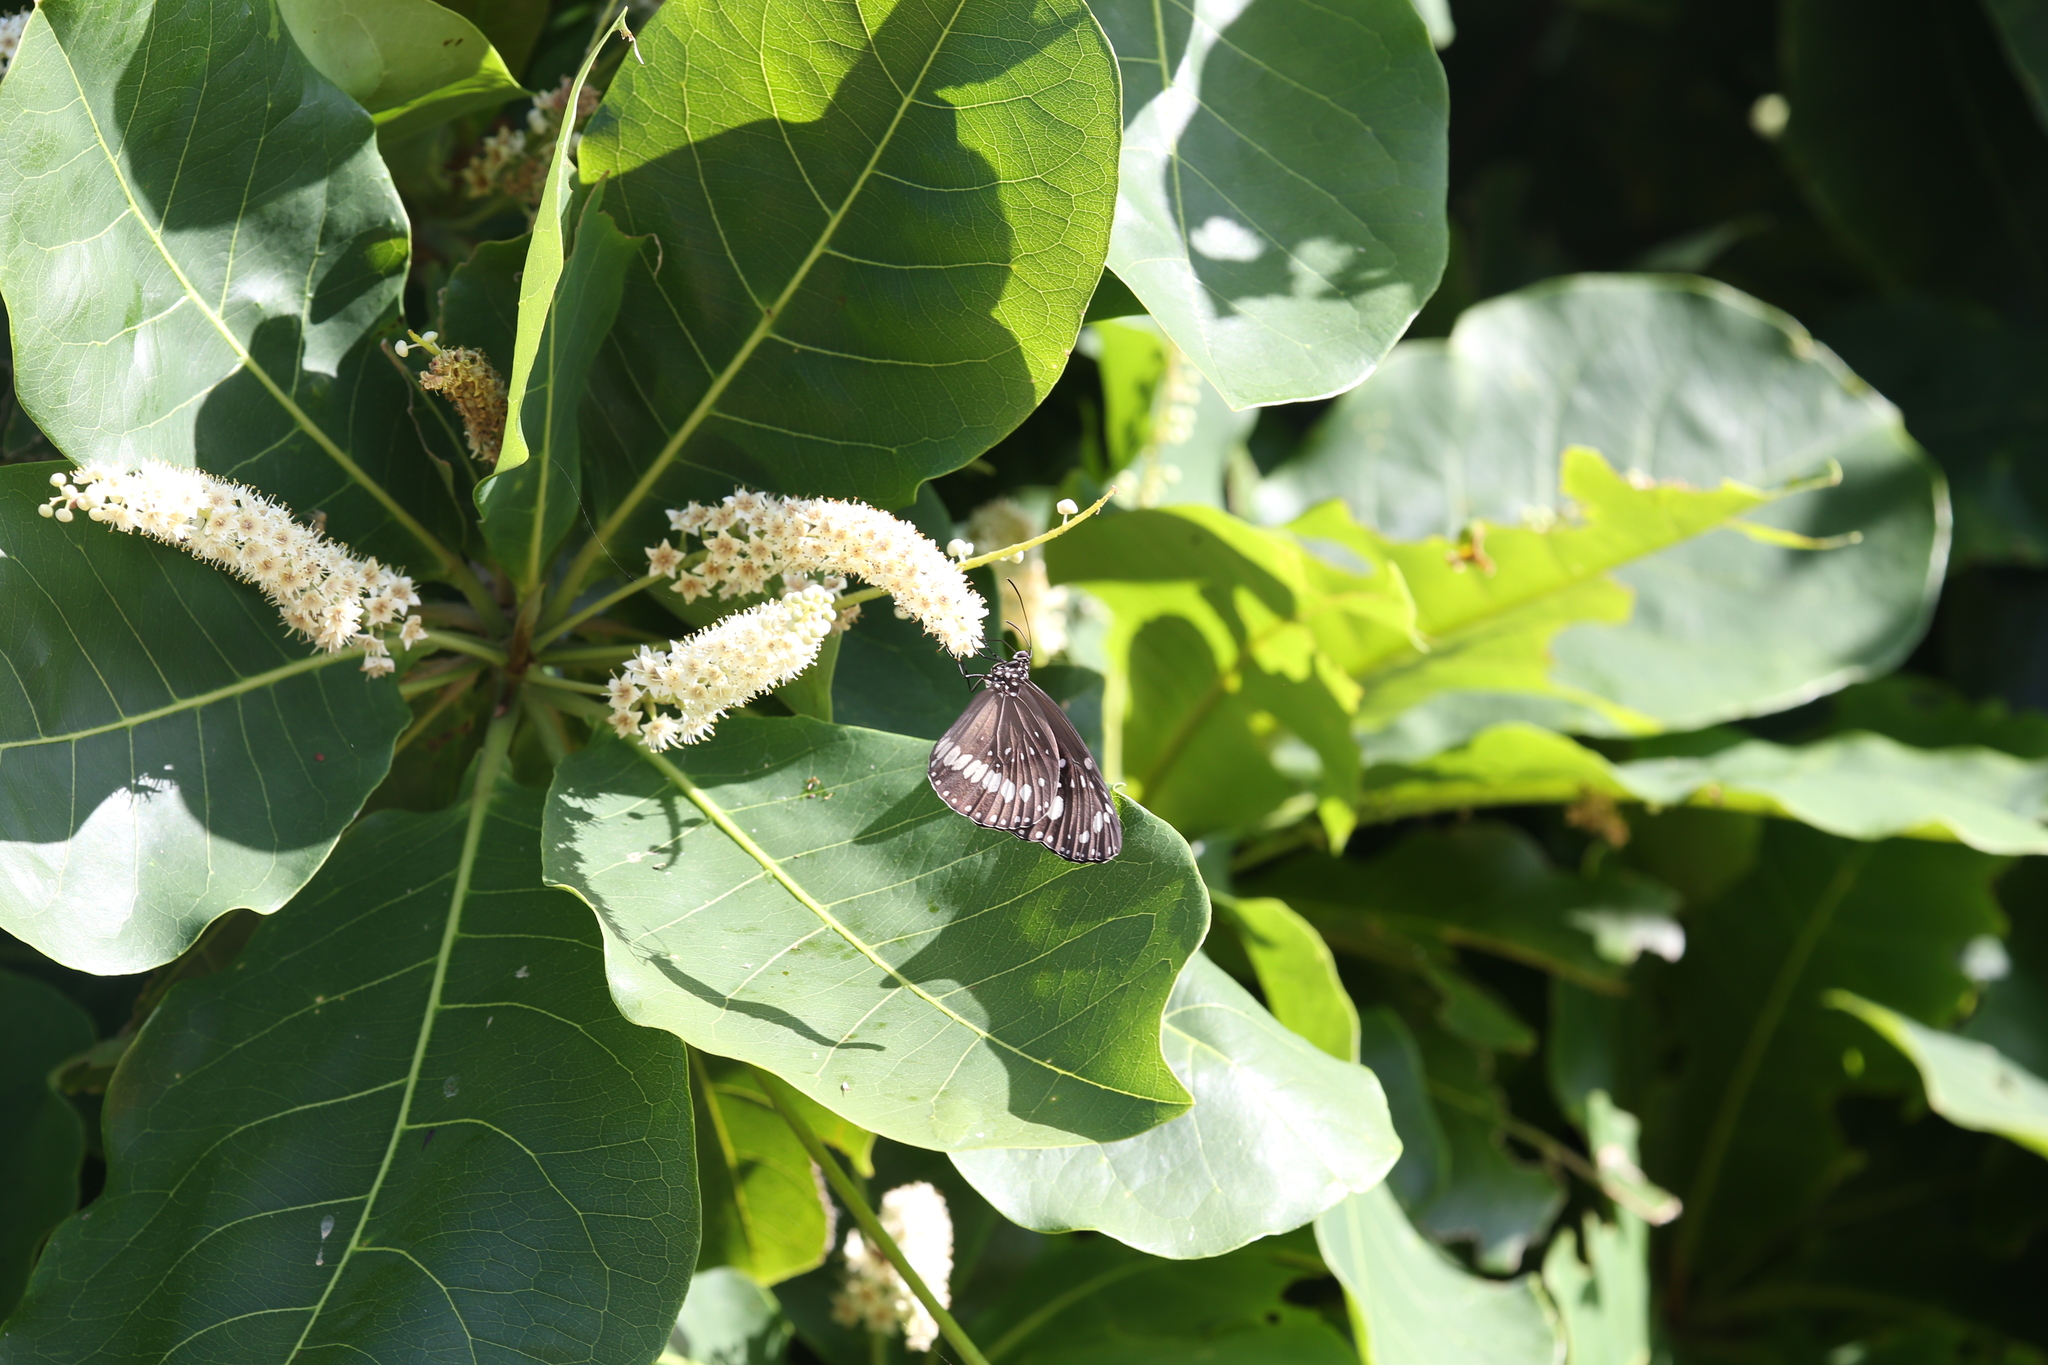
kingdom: Animalia
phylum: Arthropoda
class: Insecta
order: Lepidoptera
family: Nymphalidae
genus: Euploea
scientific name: Euploea core
